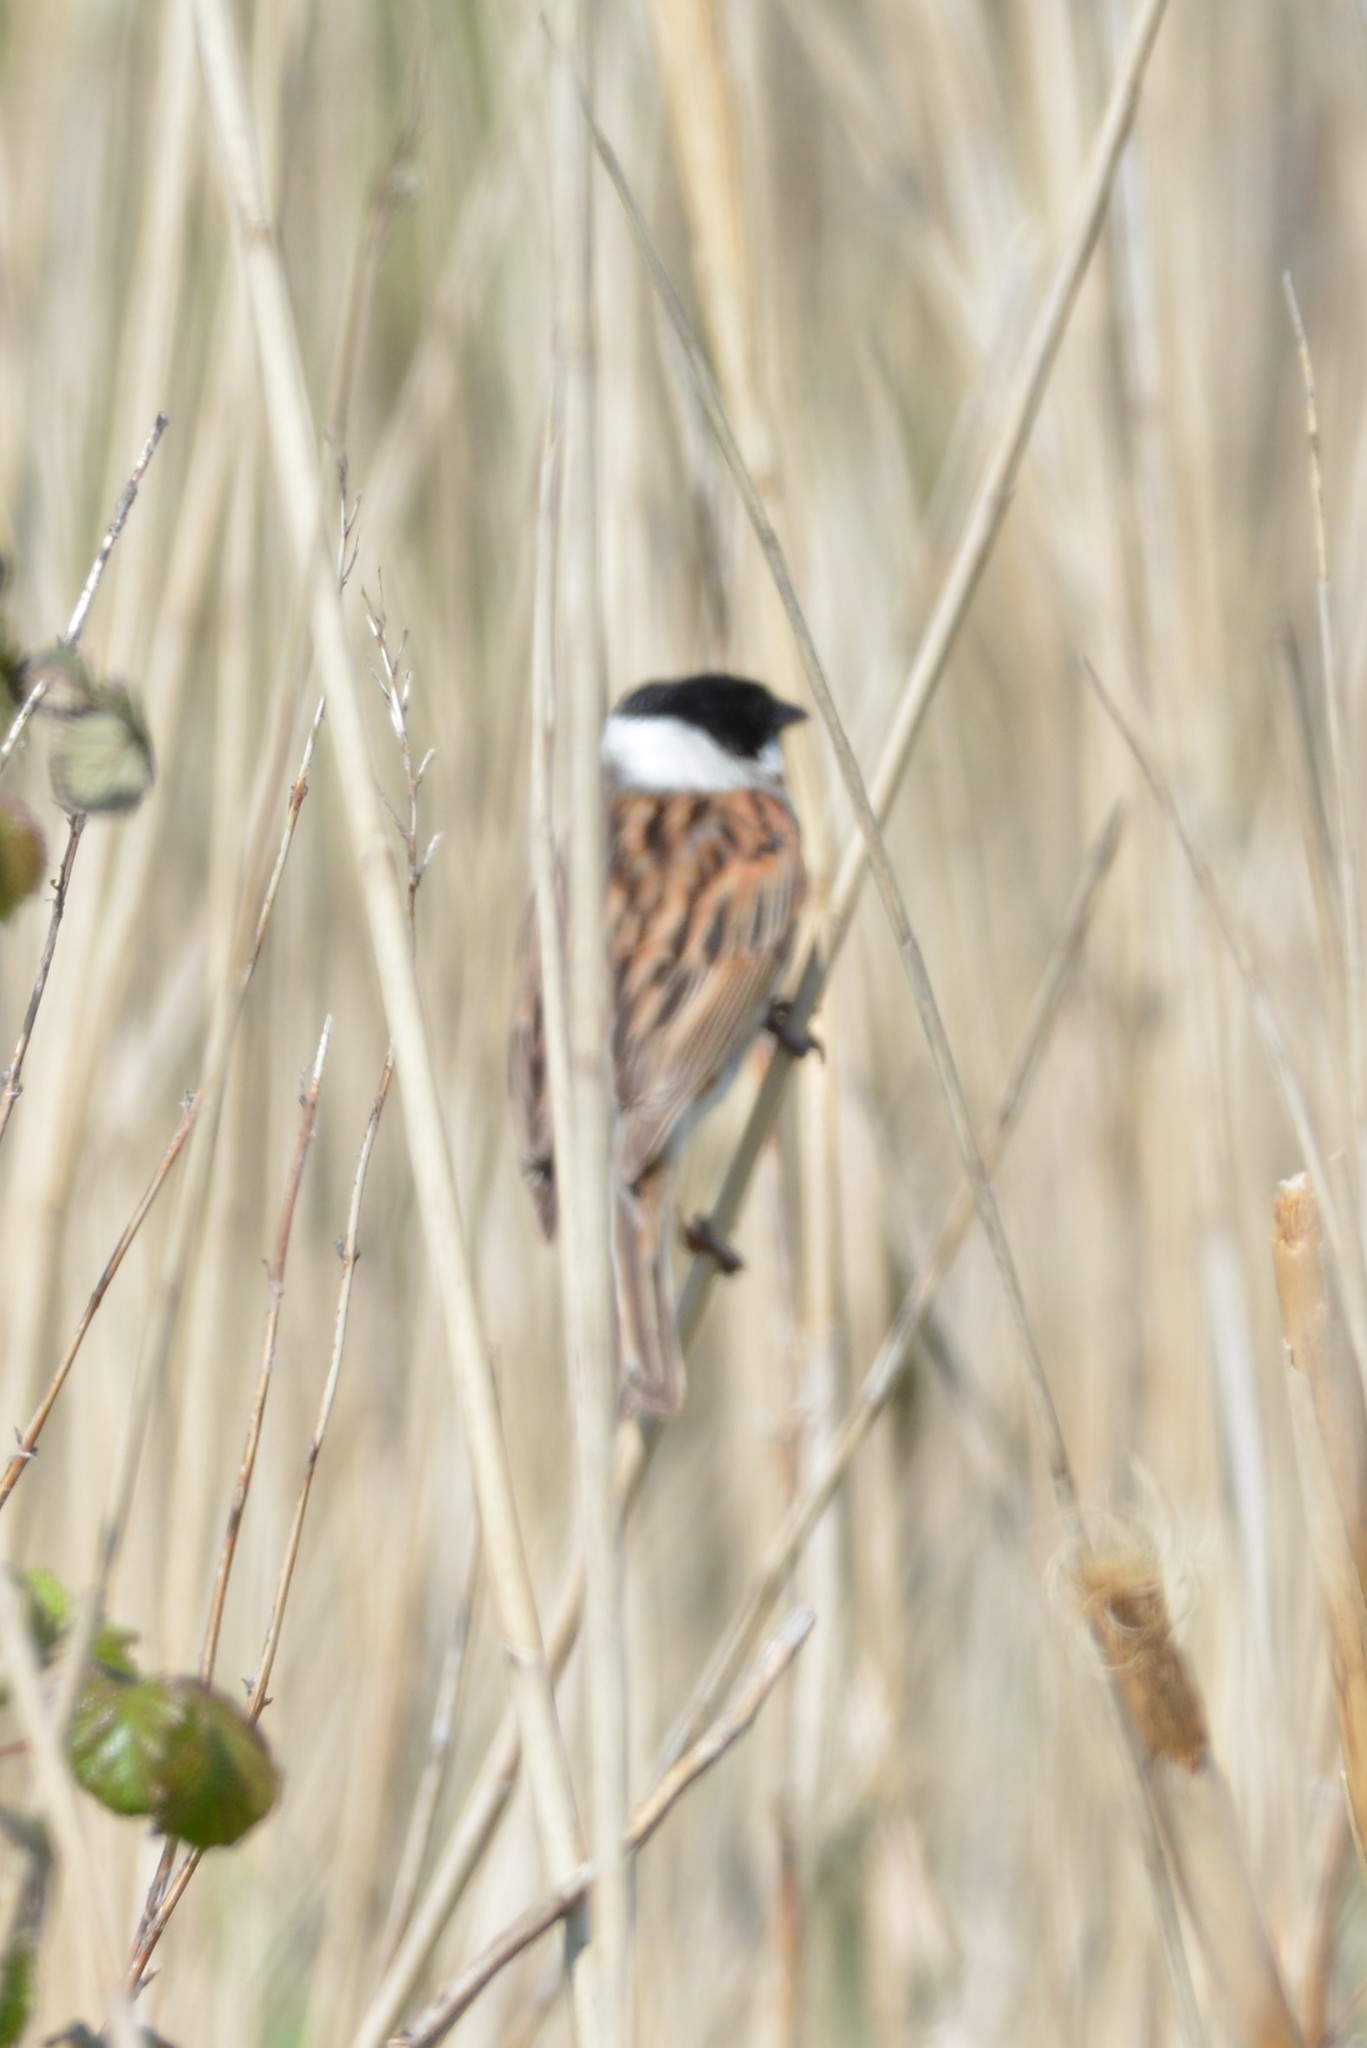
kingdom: Animalia
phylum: Chordata
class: Aves
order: Passeriformes
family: Emberizidae
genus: Emberiza
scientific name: Emberiza schoeniclus
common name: Reed bunting
